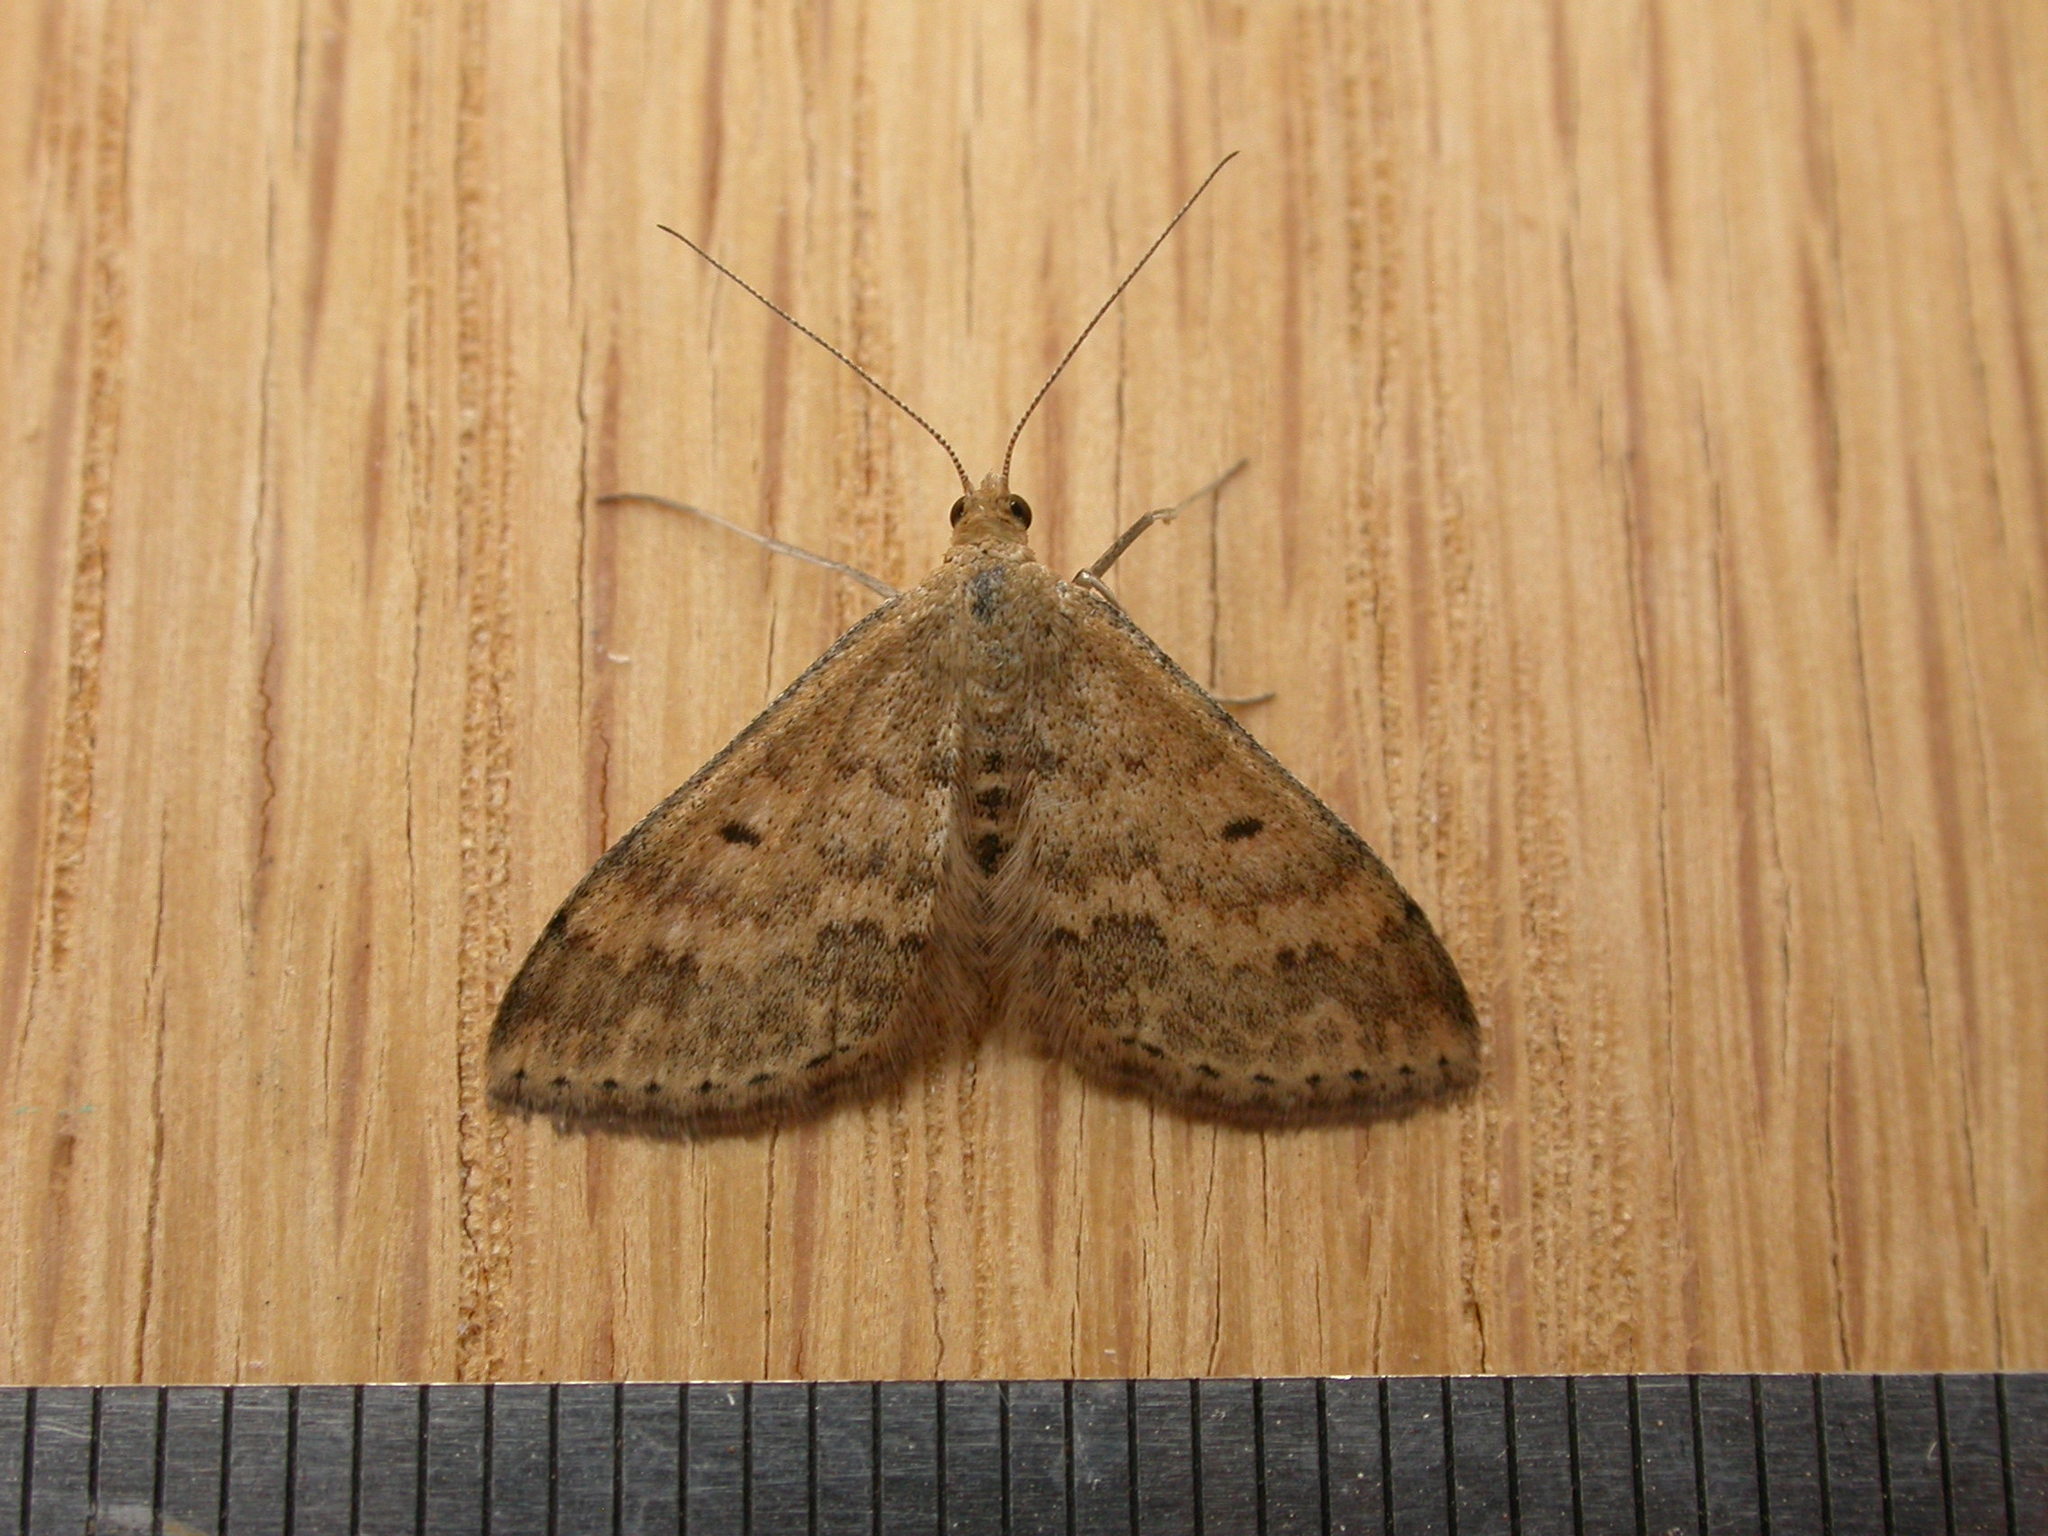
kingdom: Animalia
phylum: Arthropoda
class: Insecta
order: Lepidoptera
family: Geometridae
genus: Scopula
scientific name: Scopula rubraria
